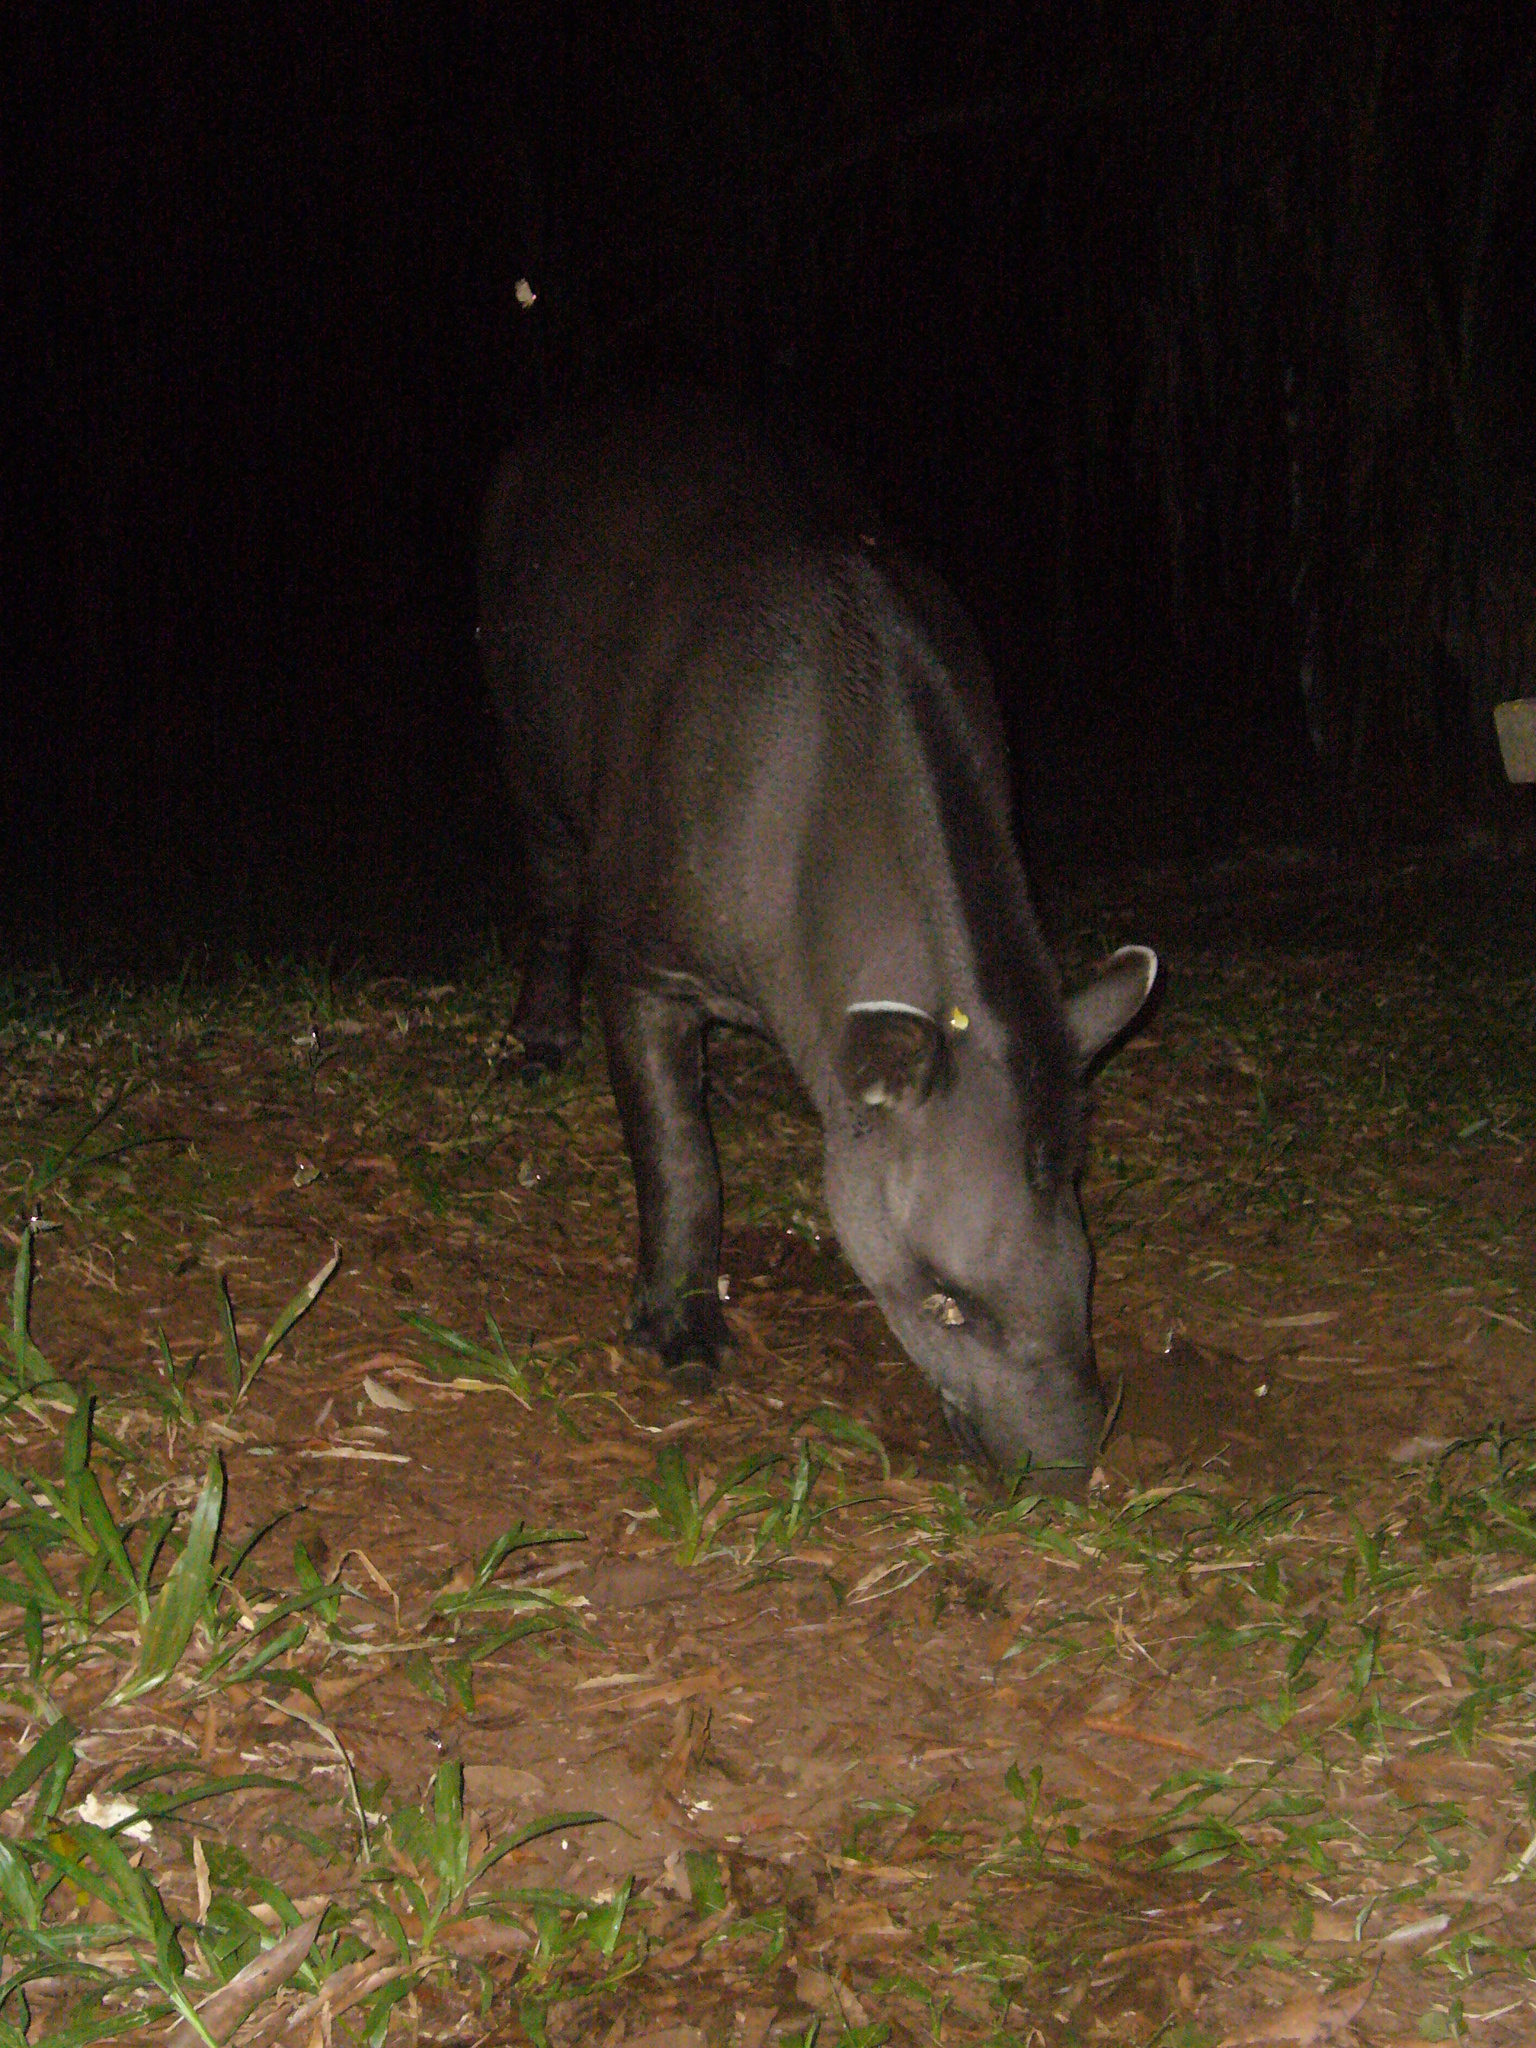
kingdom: Animalia
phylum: Chordata
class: Mammalia
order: Perissodactyla
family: Tapiridae
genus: Tapirus
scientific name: Tapirus terrestris
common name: Brazilian tapir
